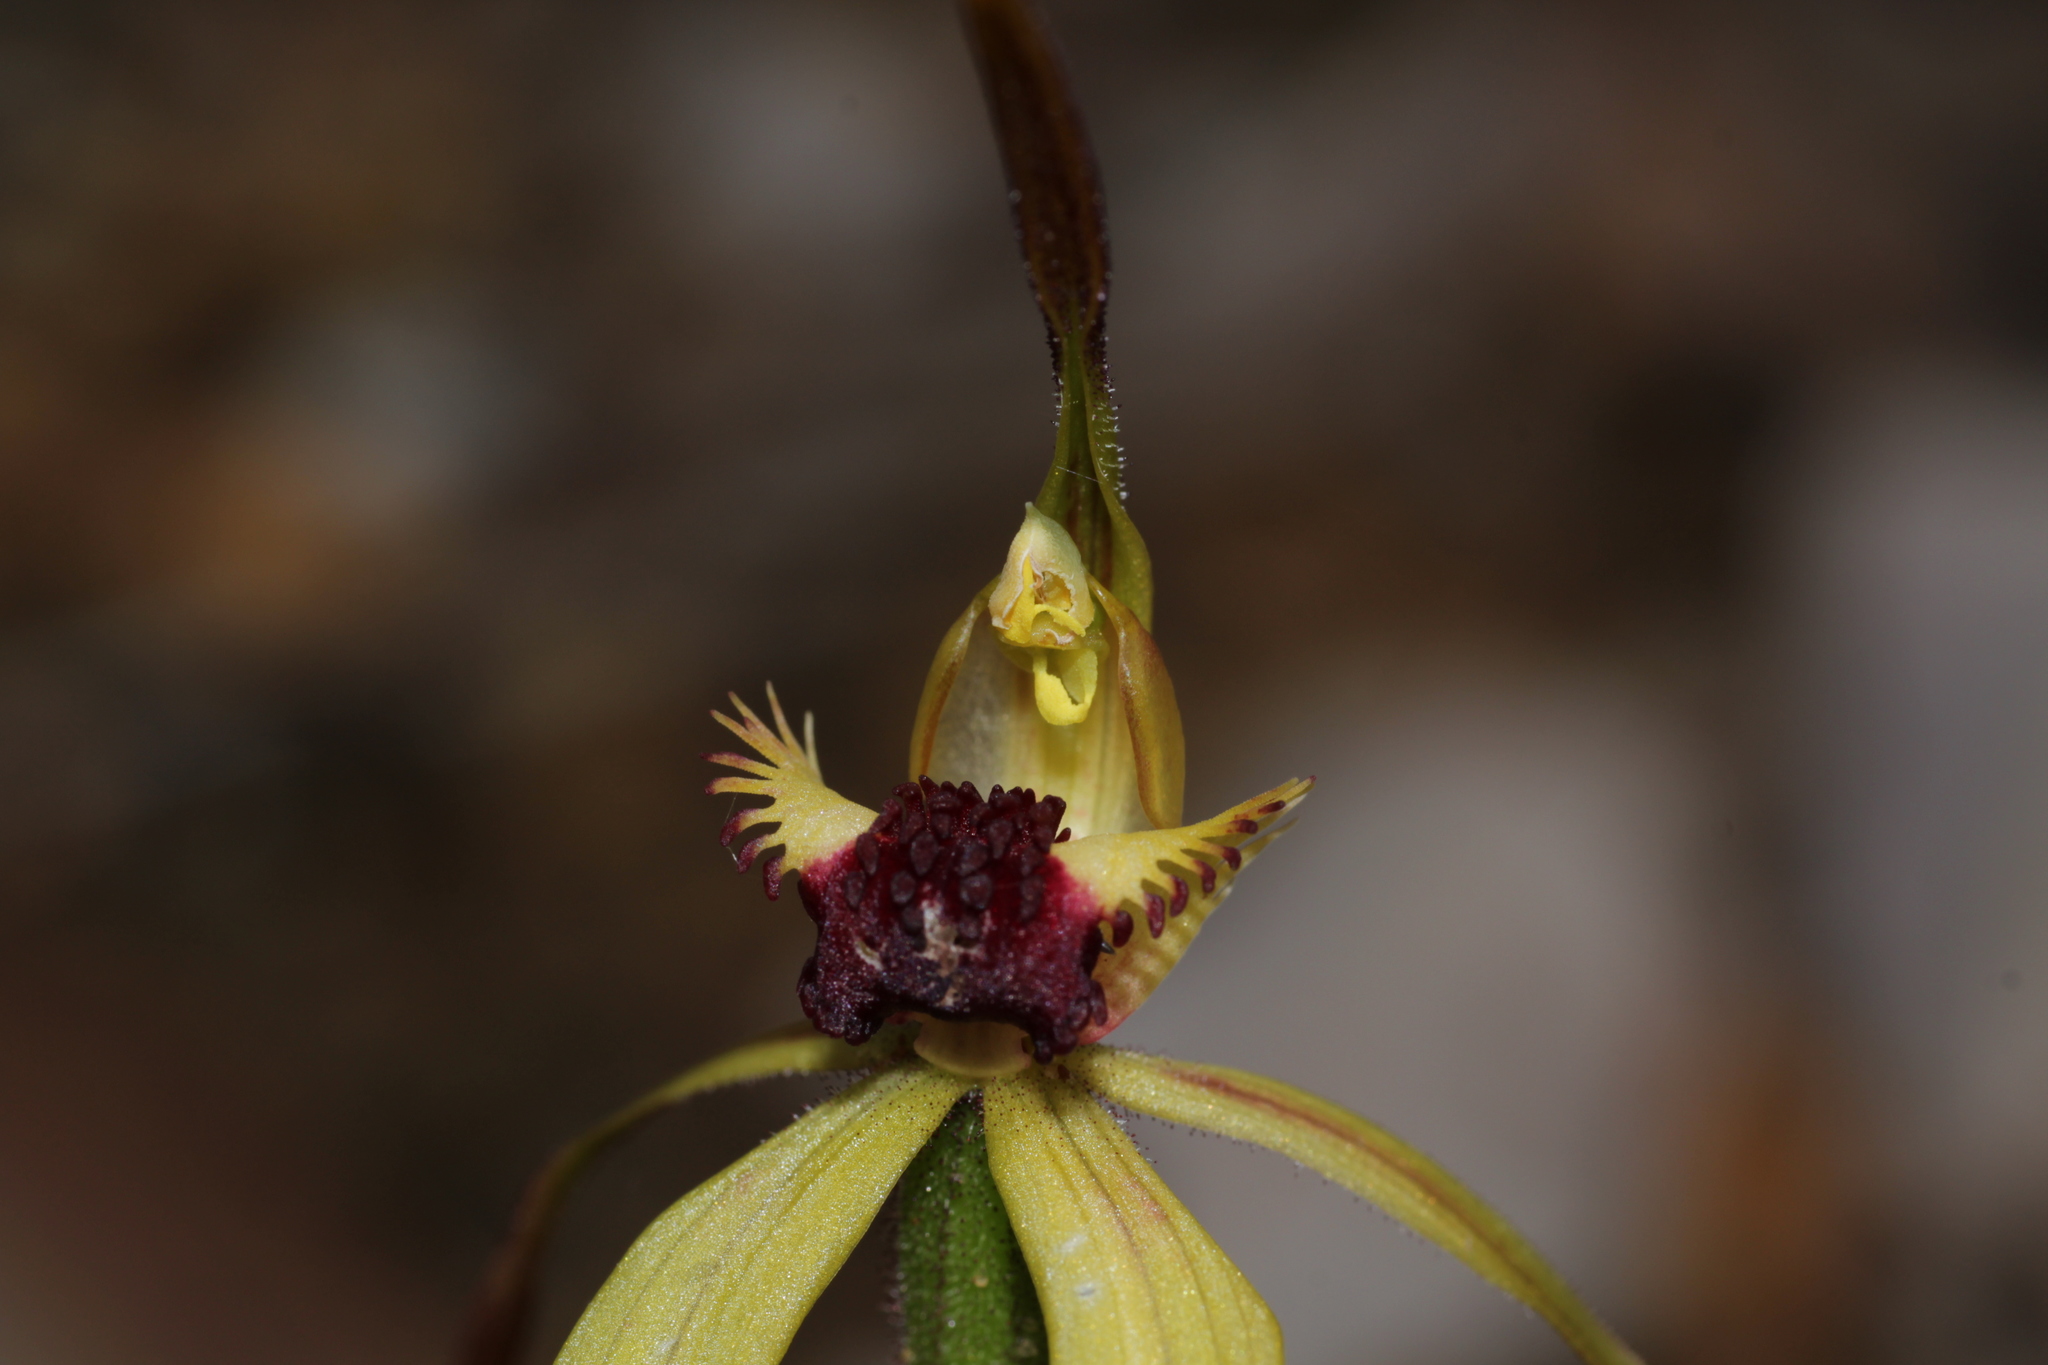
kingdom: Plantae
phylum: Tracheophyta
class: Liliopsida
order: Asparagales
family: Orchidaceae
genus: Caladenia
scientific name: Caladenia longiclavata
